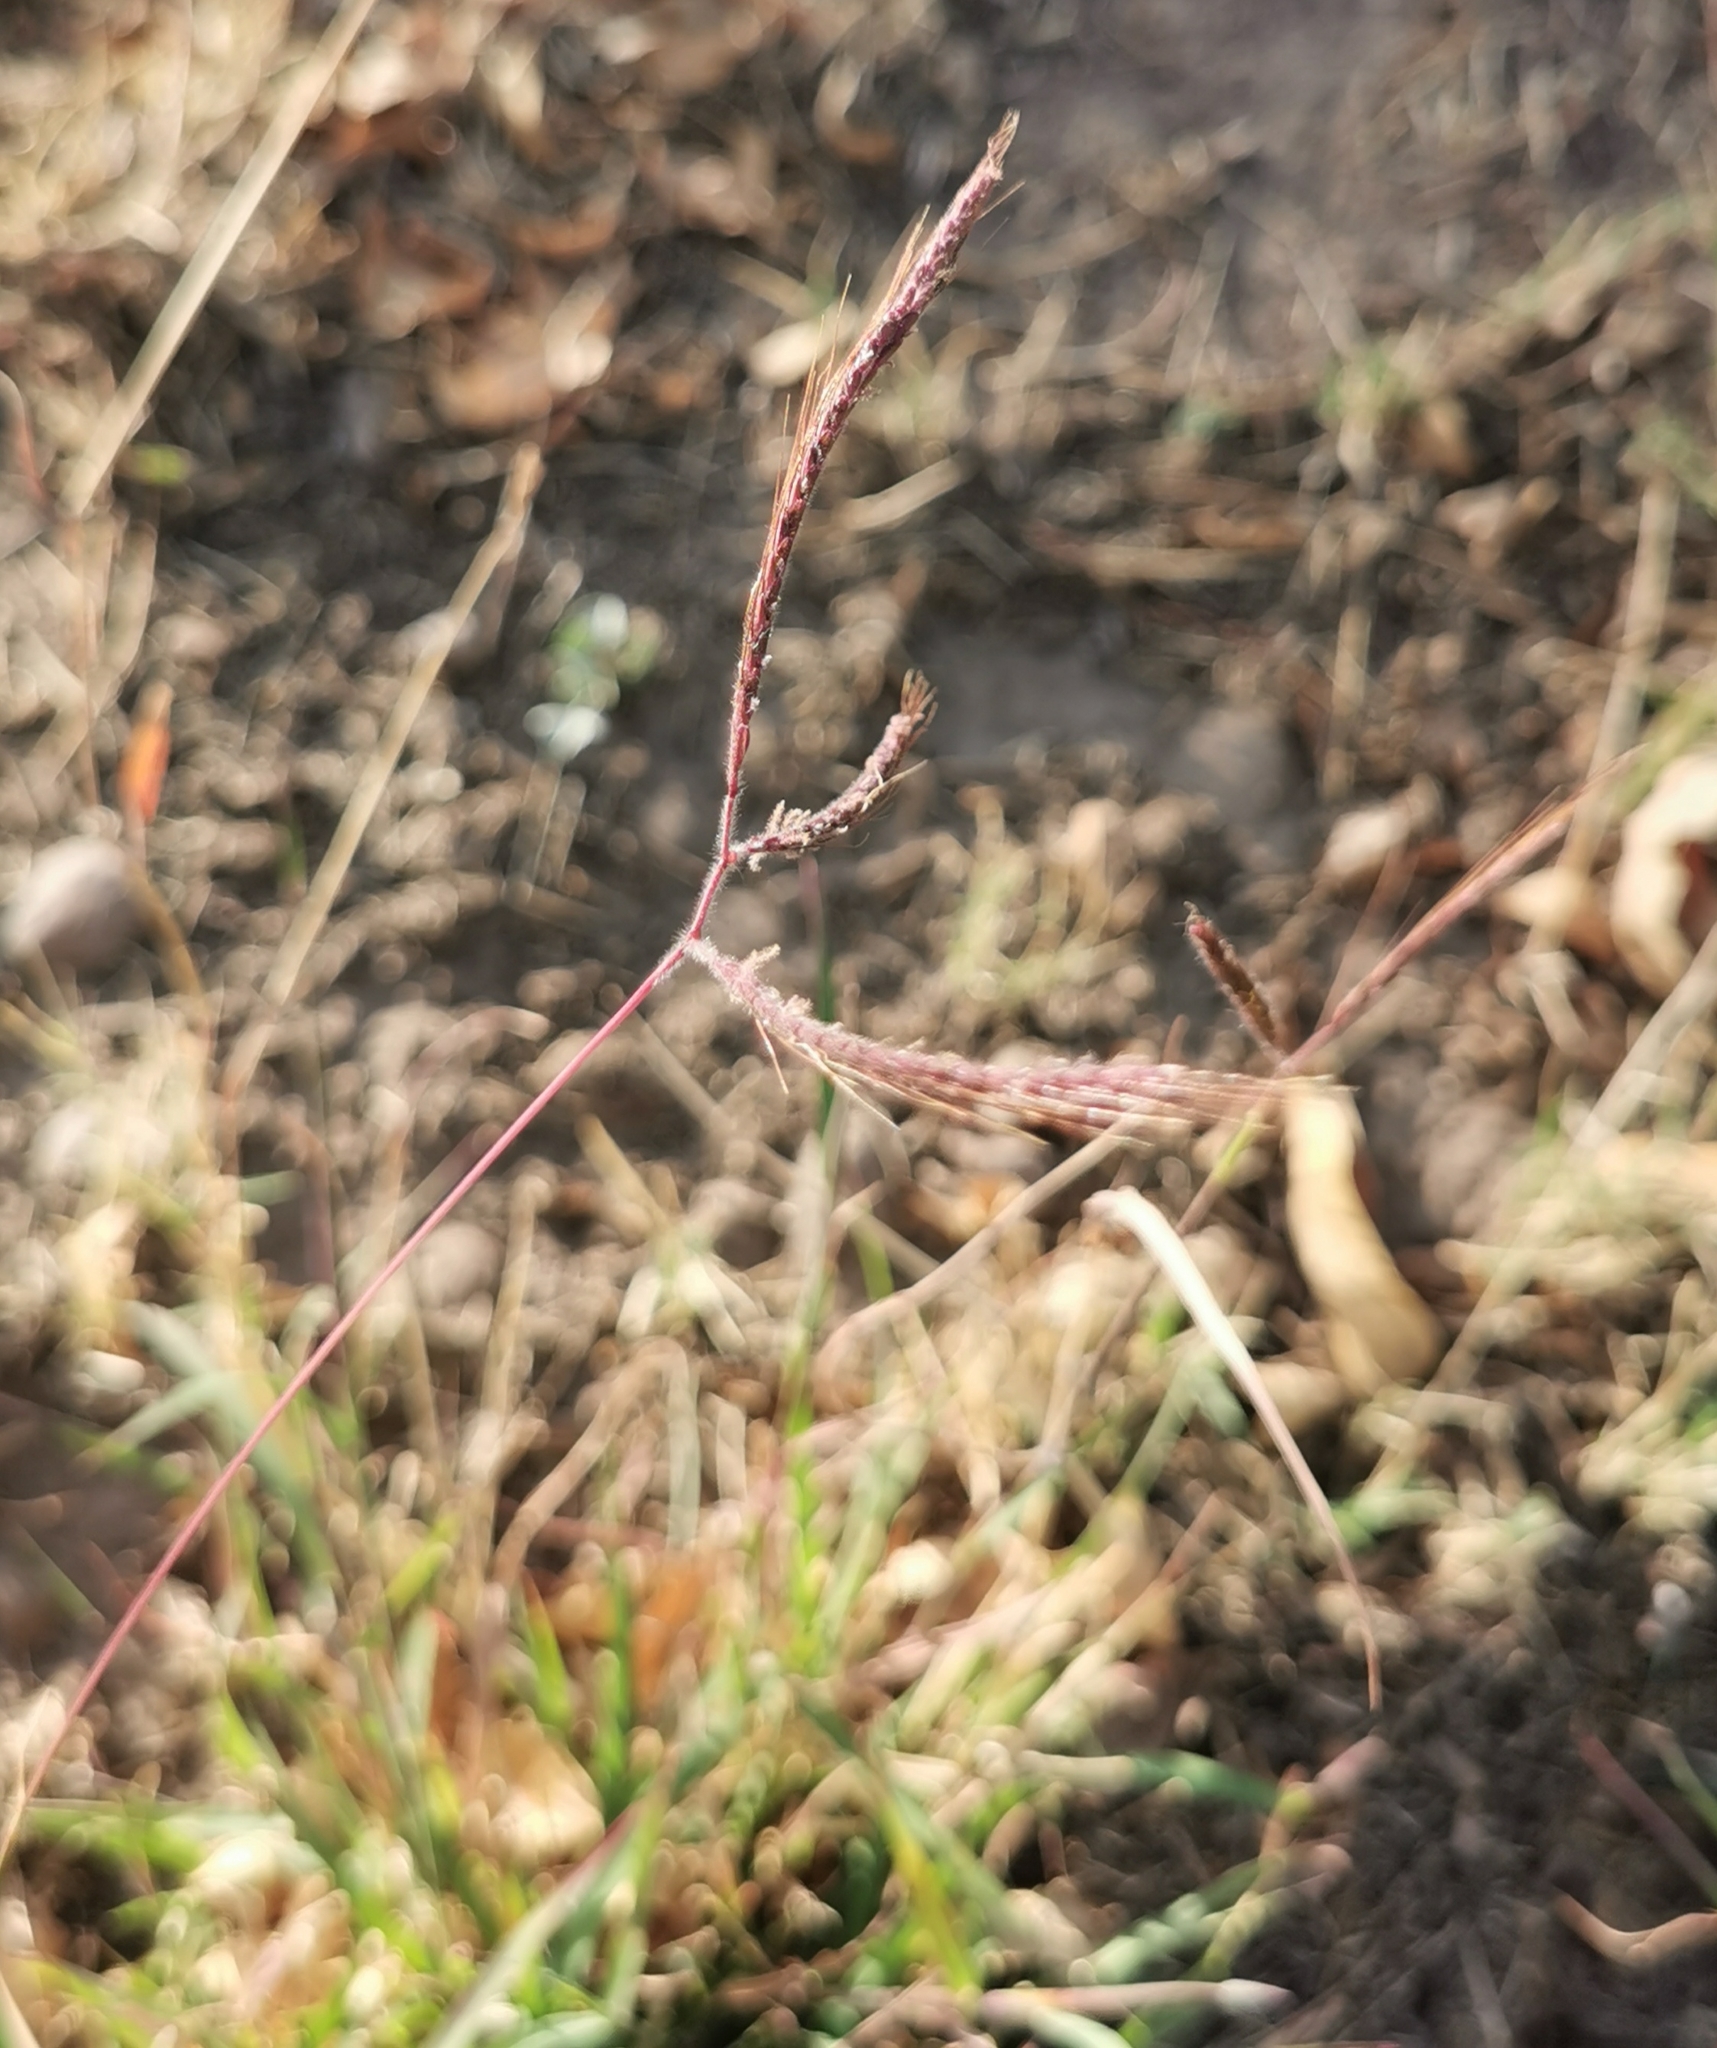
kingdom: Plantae
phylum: Tracheophyta
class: Liliopsida
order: Poales
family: Poaceae
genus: Dichanthium
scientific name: Dichanthium aristatum
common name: Angleton bluestem
